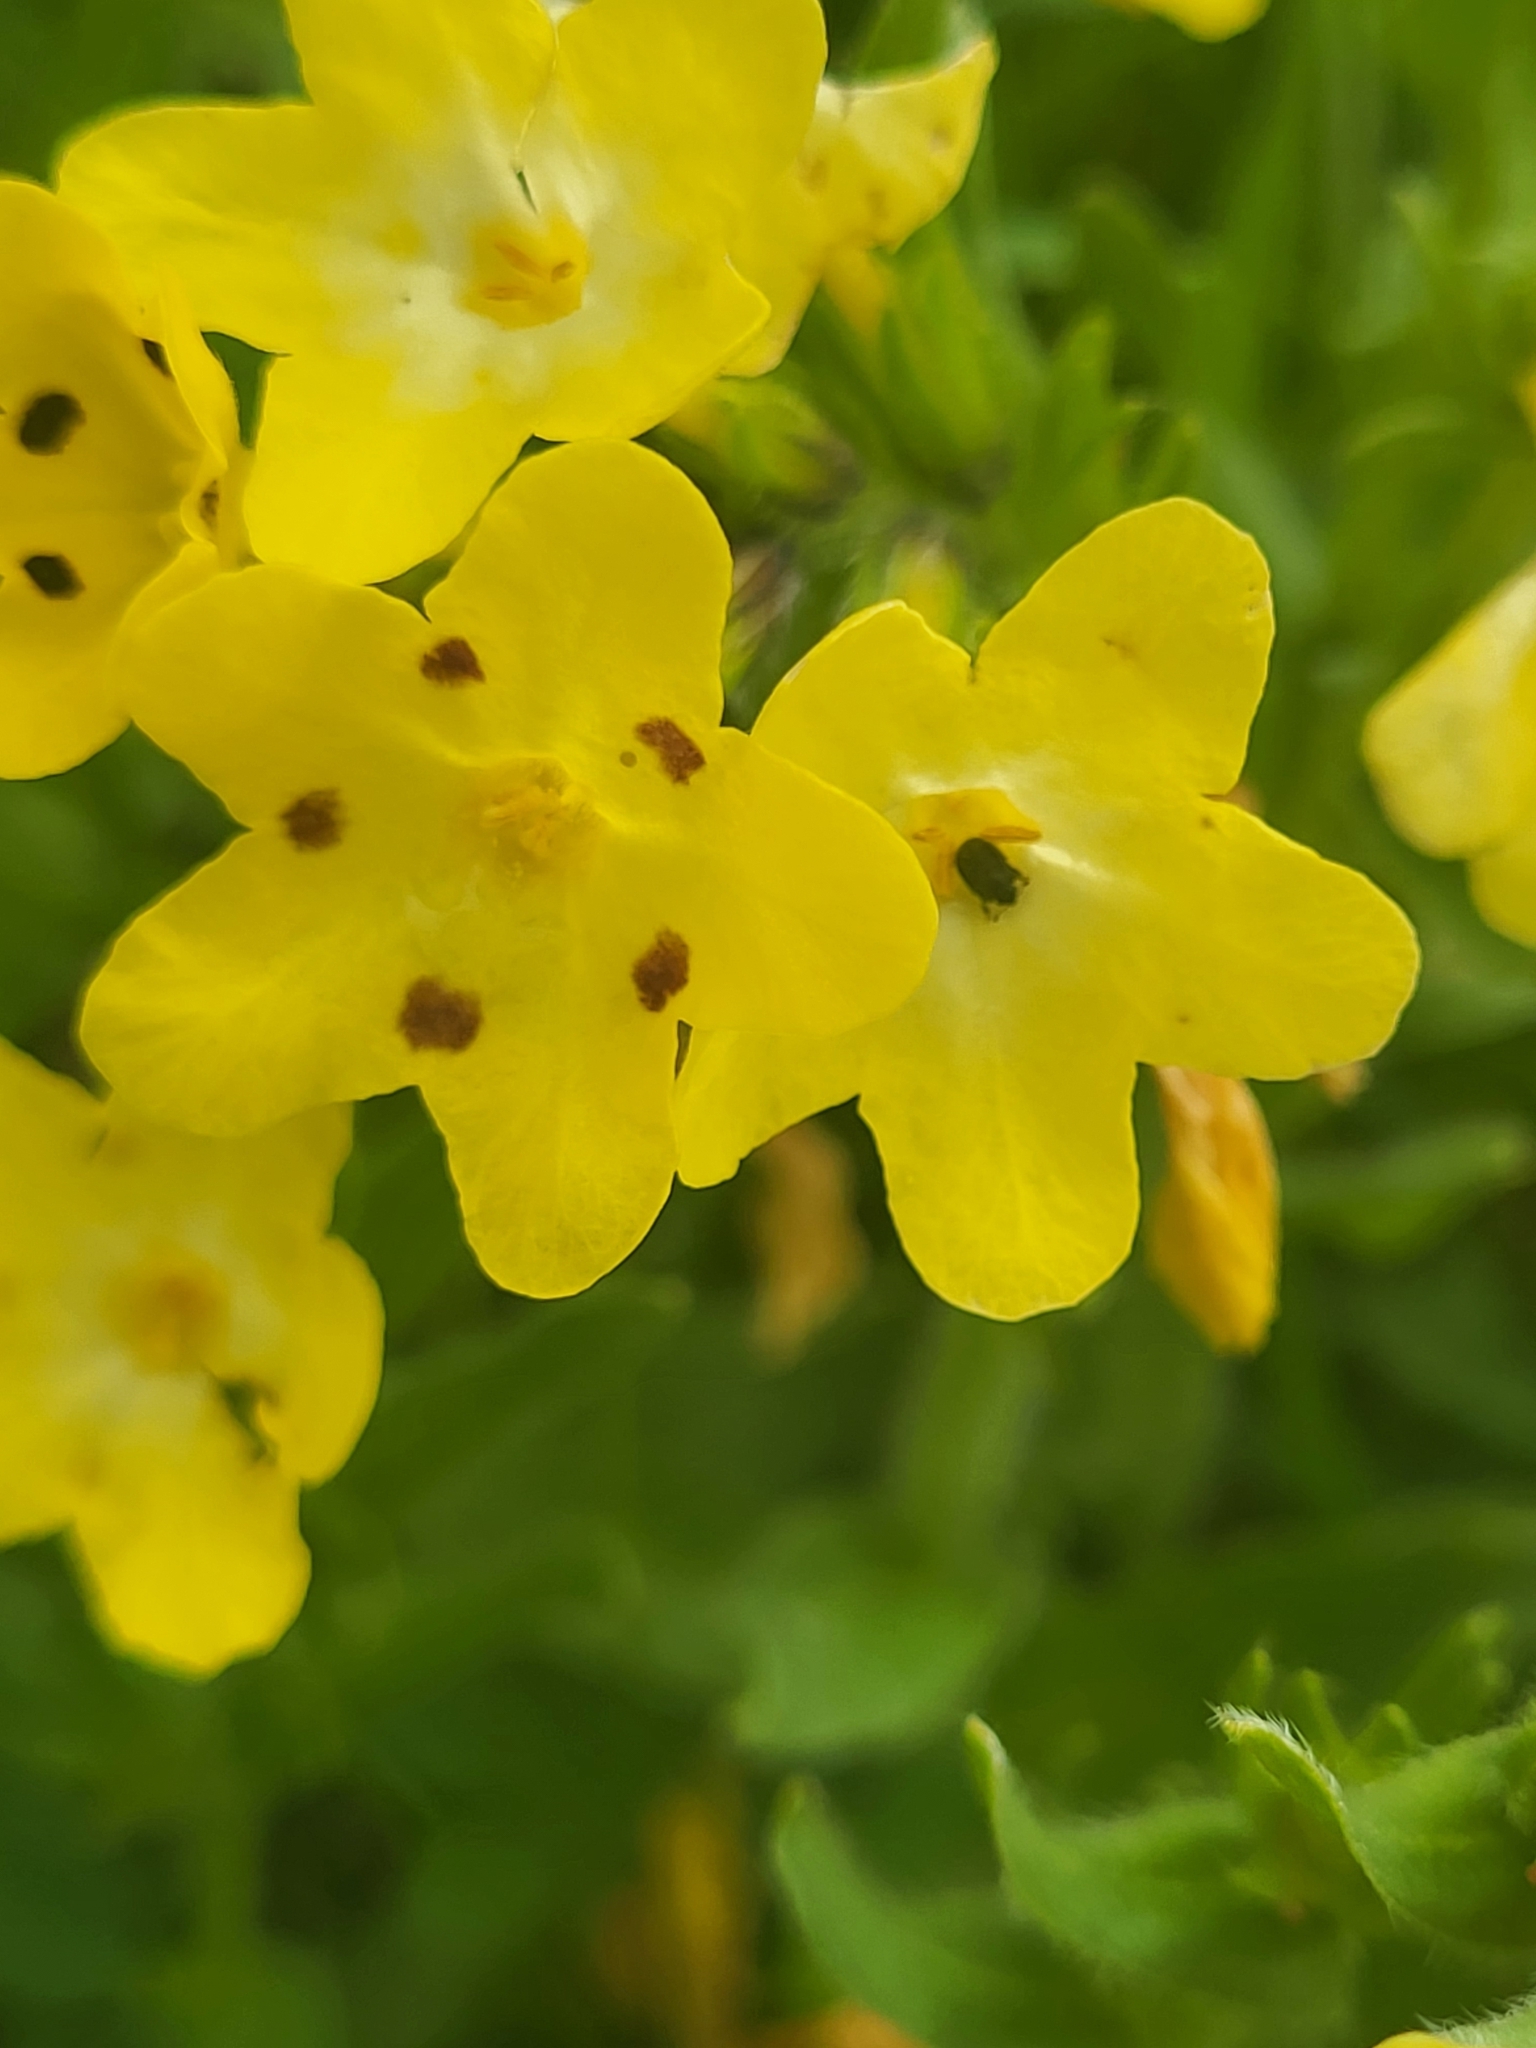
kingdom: Plantae
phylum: Tracheophyta
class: Magnoliopsida
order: Boraginales
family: Boraginaceae
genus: Huynhia
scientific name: Huynhia pulchra
